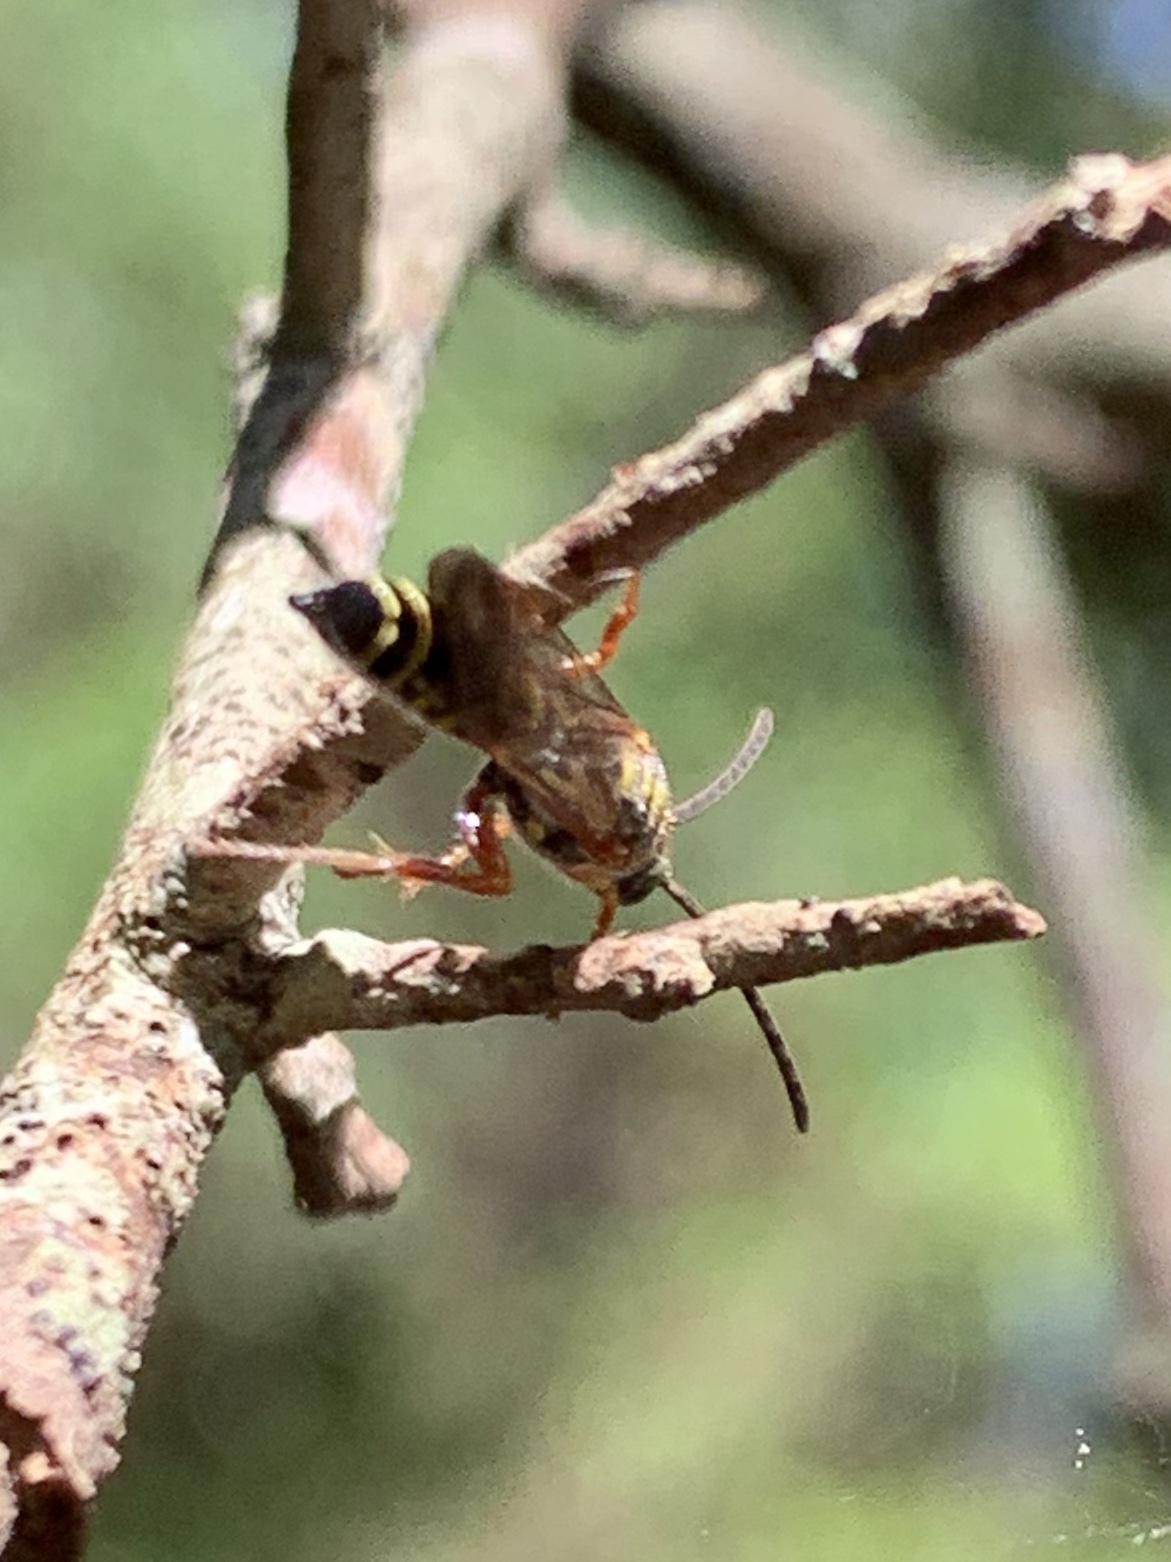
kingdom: Animalia
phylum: Arthropoda
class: Insecta
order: Hymenoptera
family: Tiphiidae
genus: Myzinum
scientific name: Myzinum dubiosum
